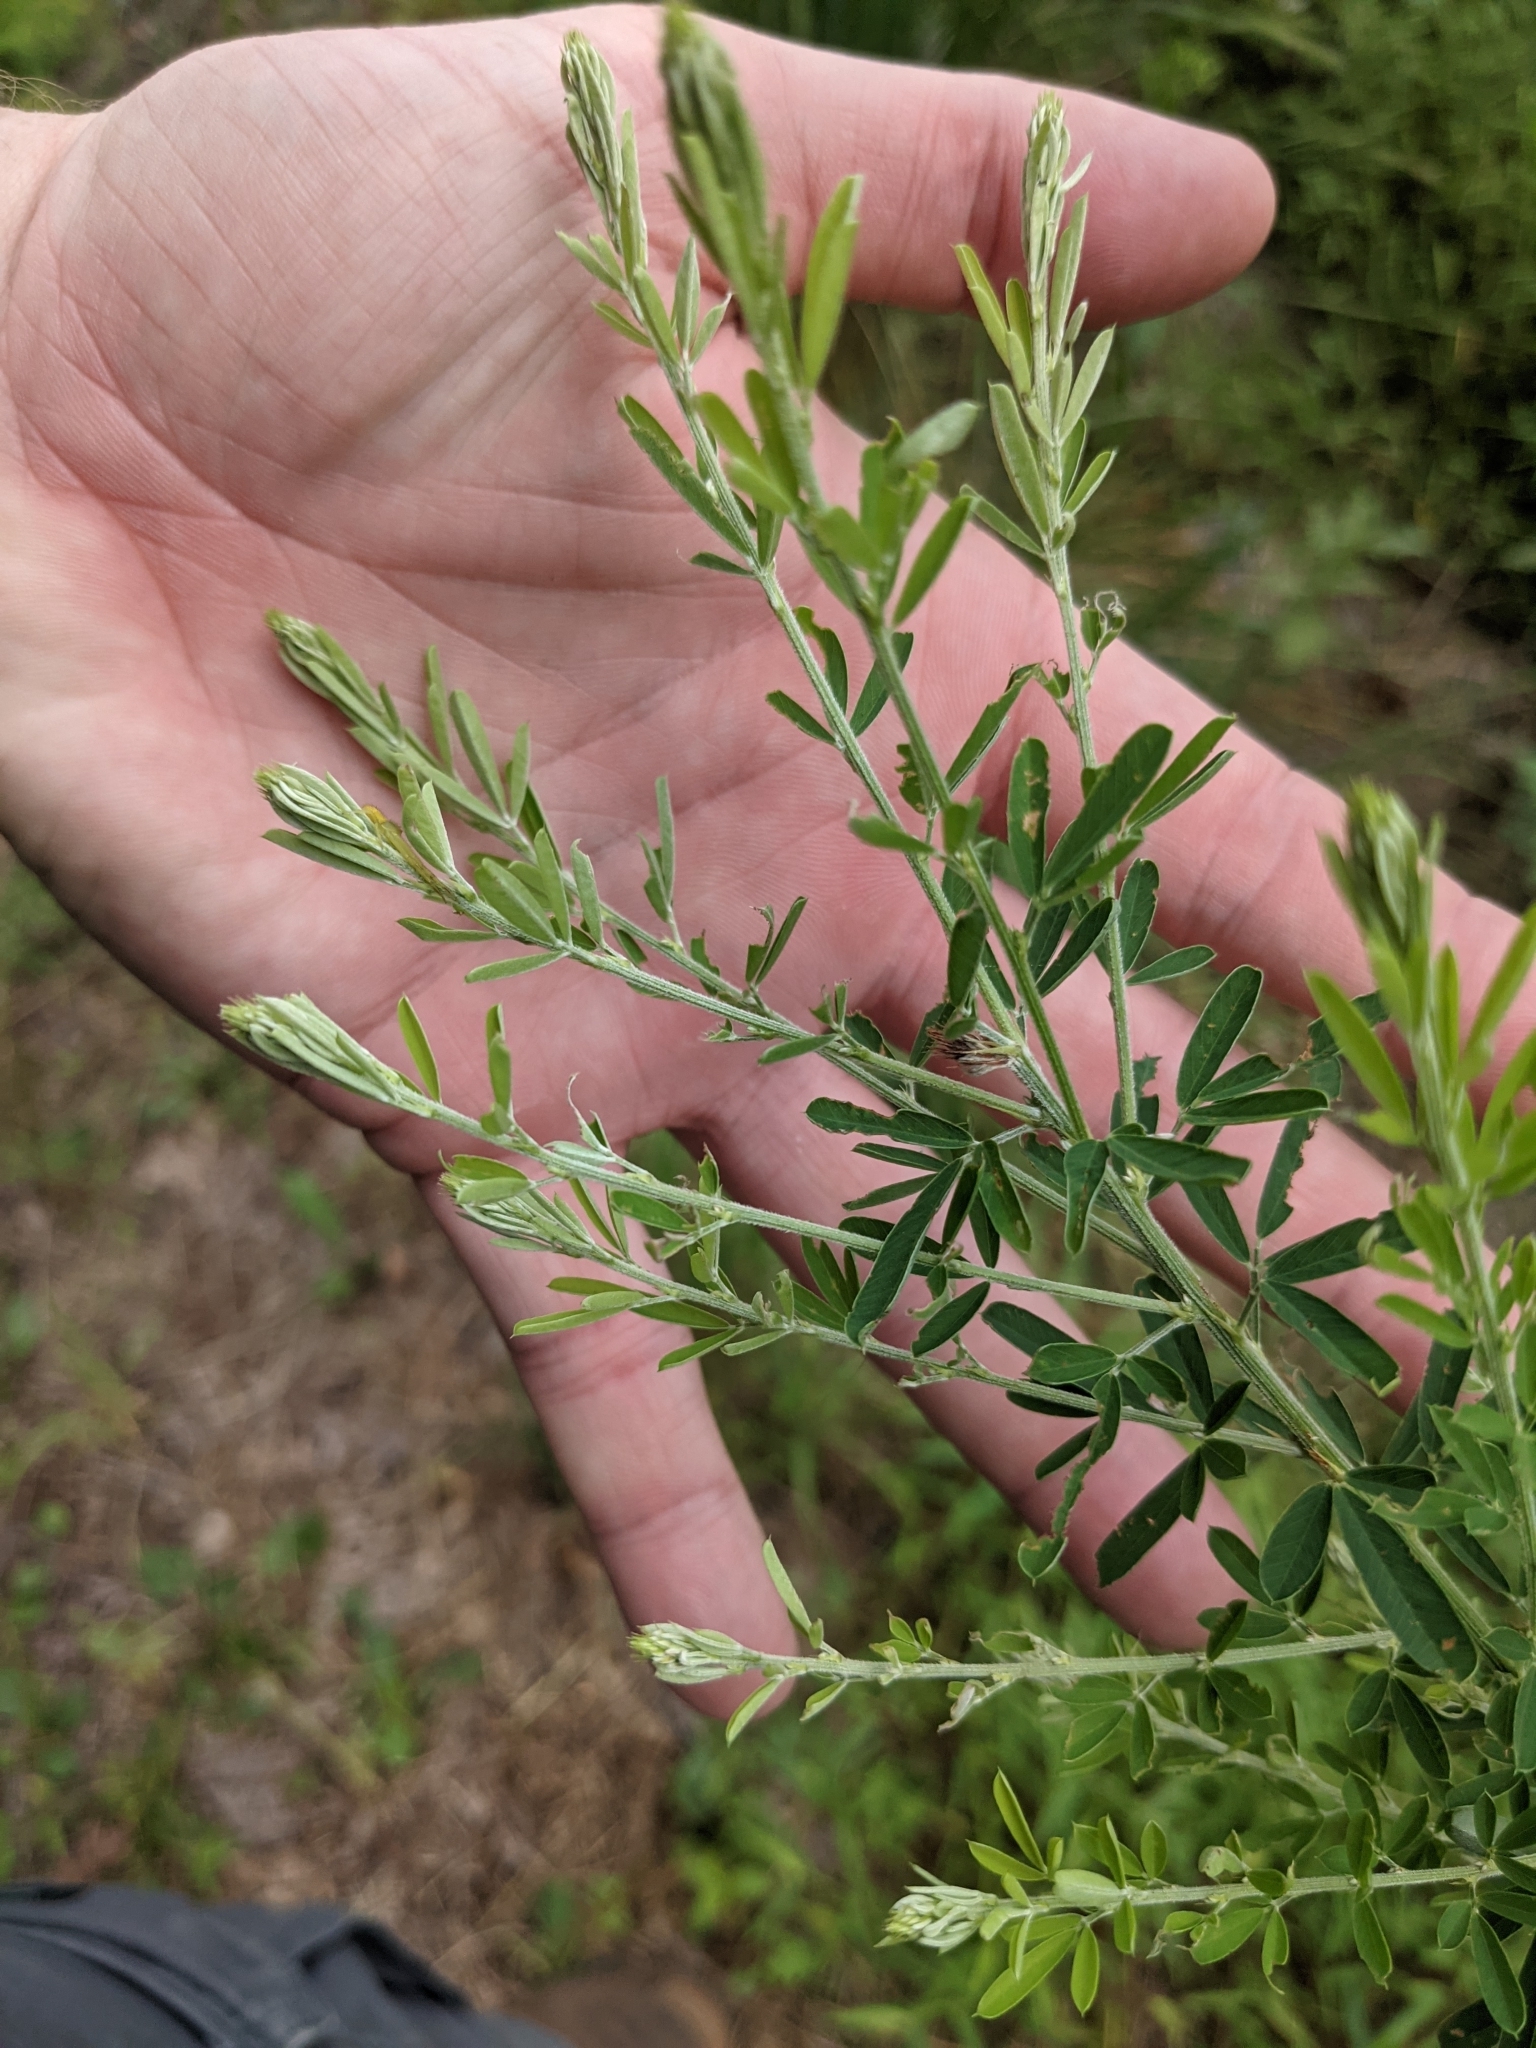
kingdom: Plantae
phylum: Tracheophyta
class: Magnoliopsida
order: Fabales
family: Fabaceae
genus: Lespedeza
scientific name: Lespedeza cuneata
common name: Chinese bush-clover
